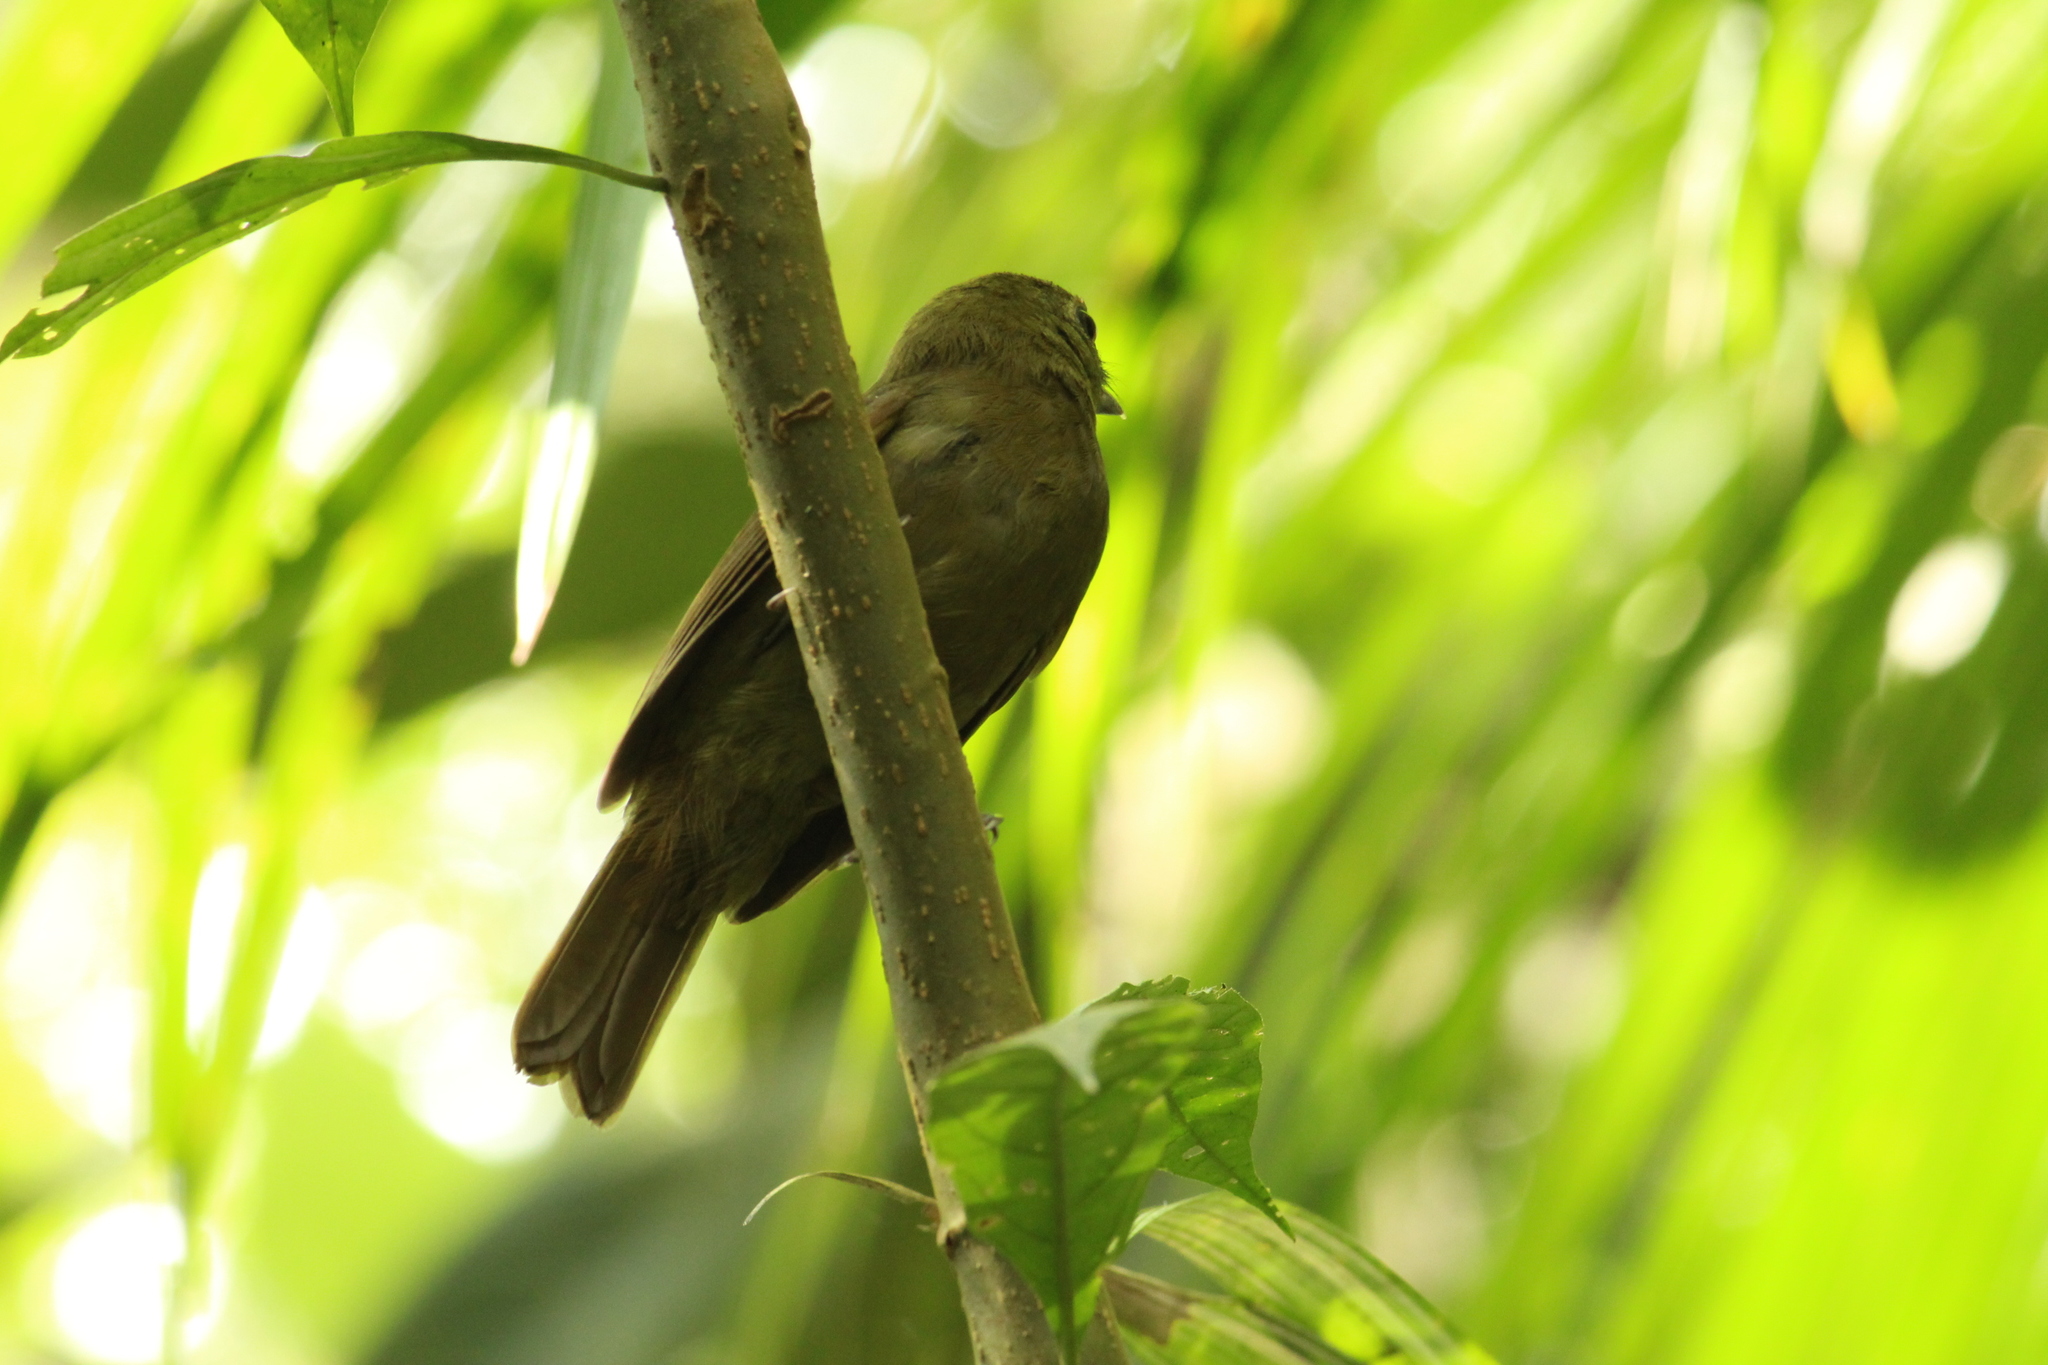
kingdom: Animalia
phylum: Chordata
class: Aves
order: Passeriformes
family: Cotingidae
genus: Schiffornis
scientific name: Schiffornis virescens
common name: Greenish schiffornis
